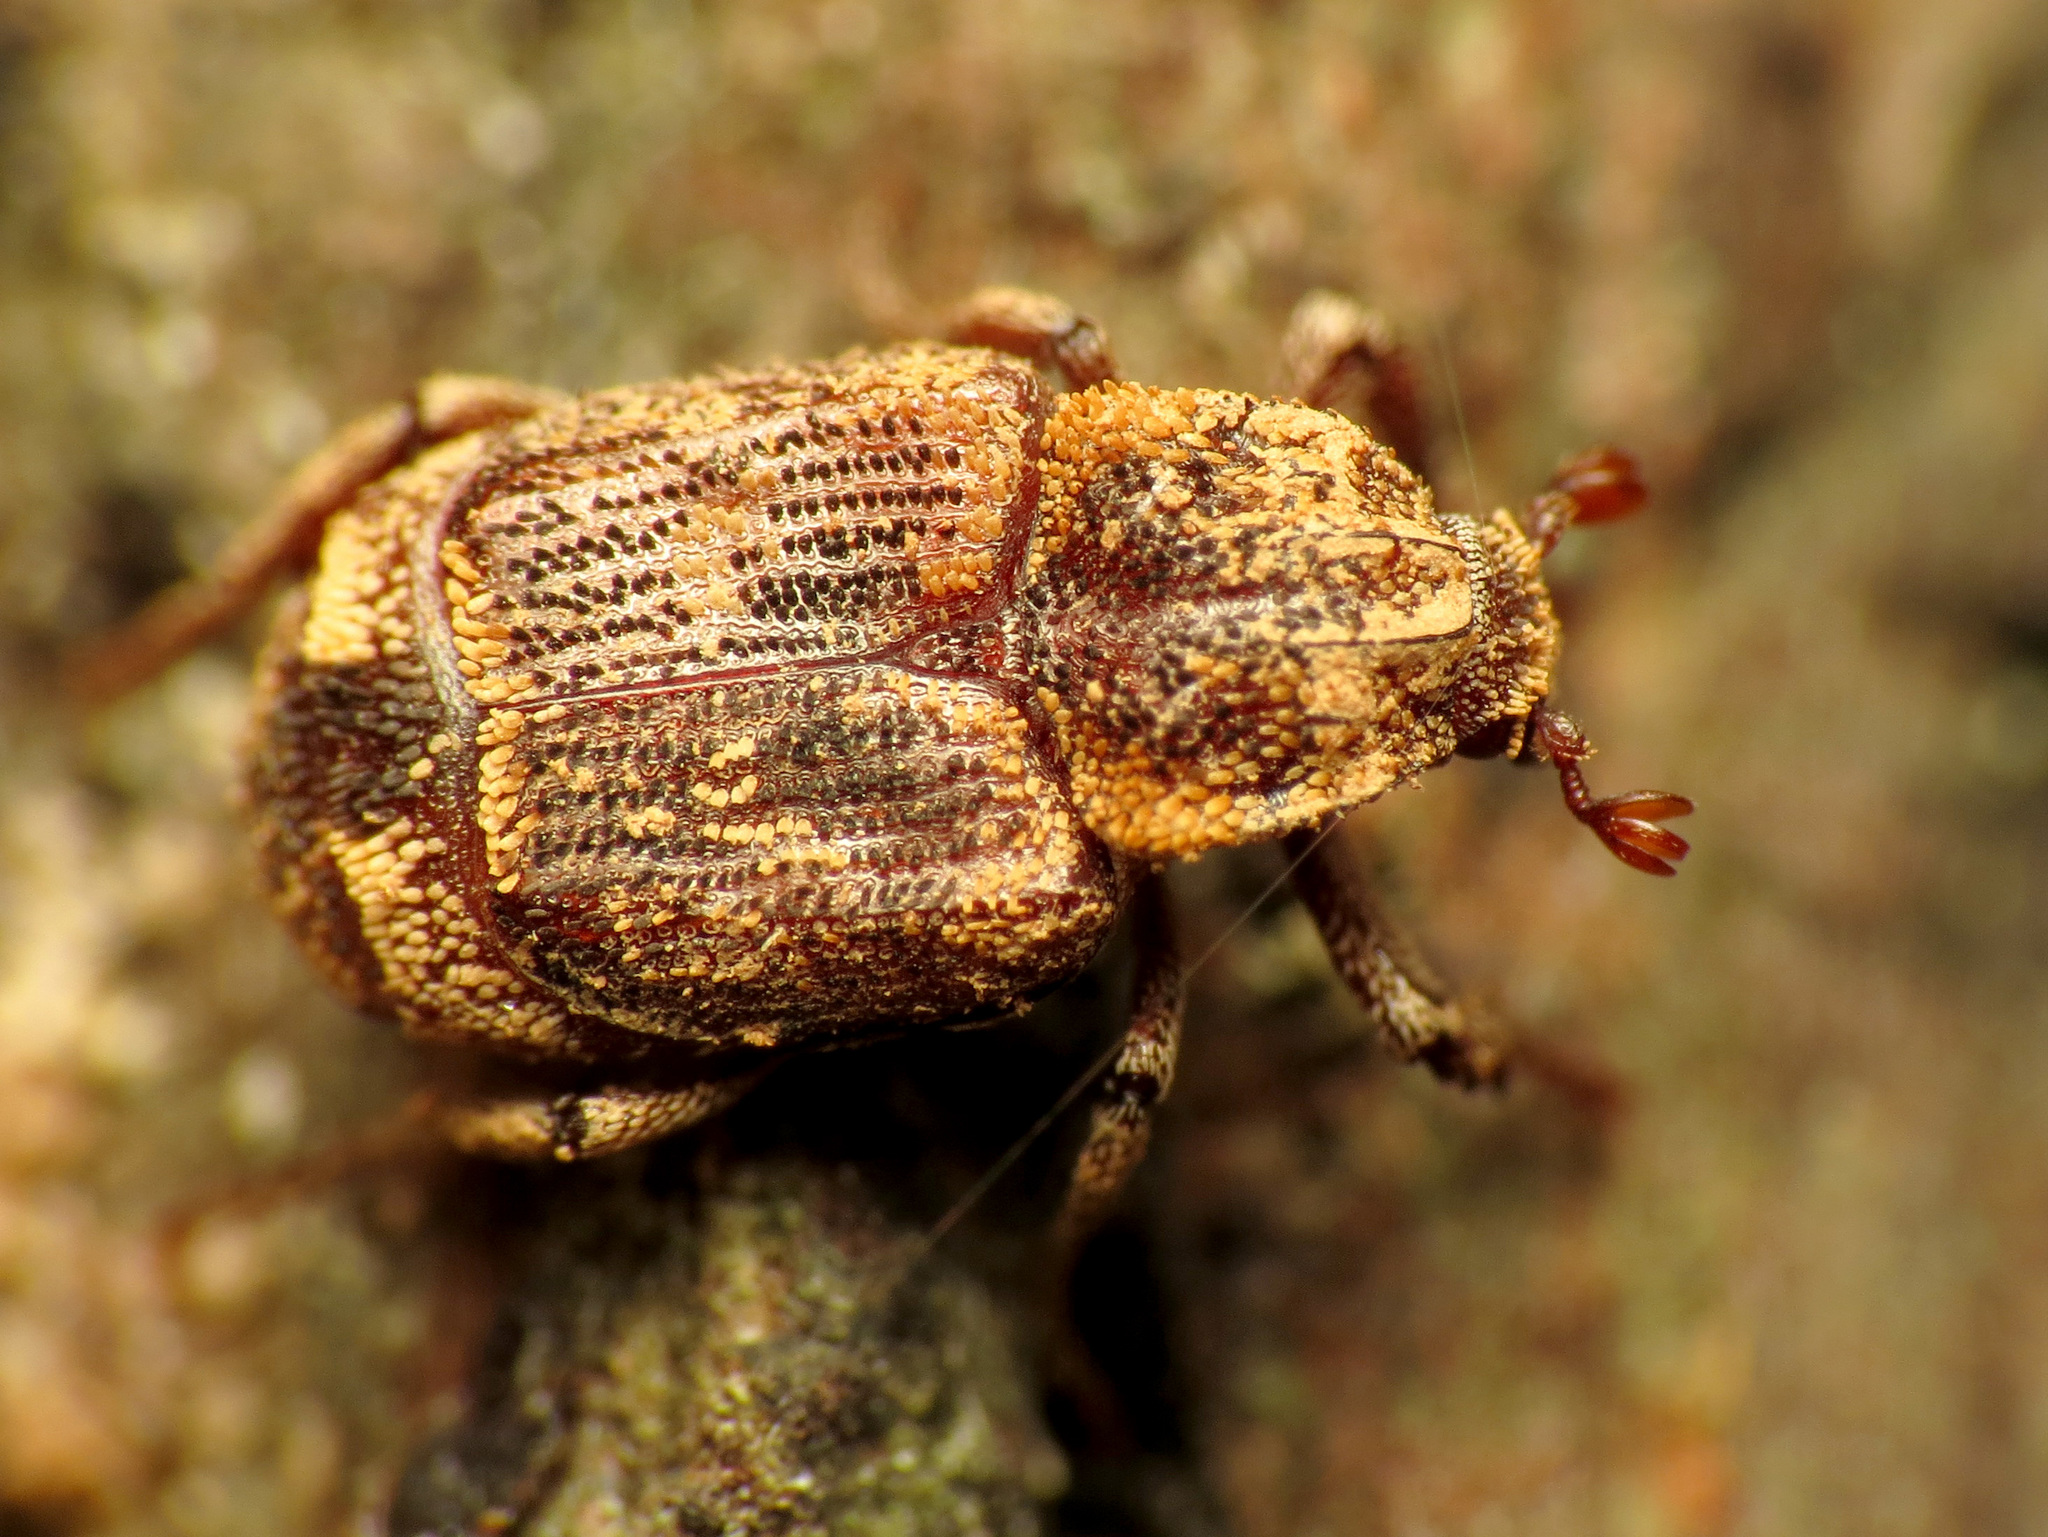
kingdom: Animalia
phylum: Arthropoda
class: Insecta
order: Coleoptera
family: Scarabaeidae
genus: Valgus
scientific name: Valgus canaliculatus
